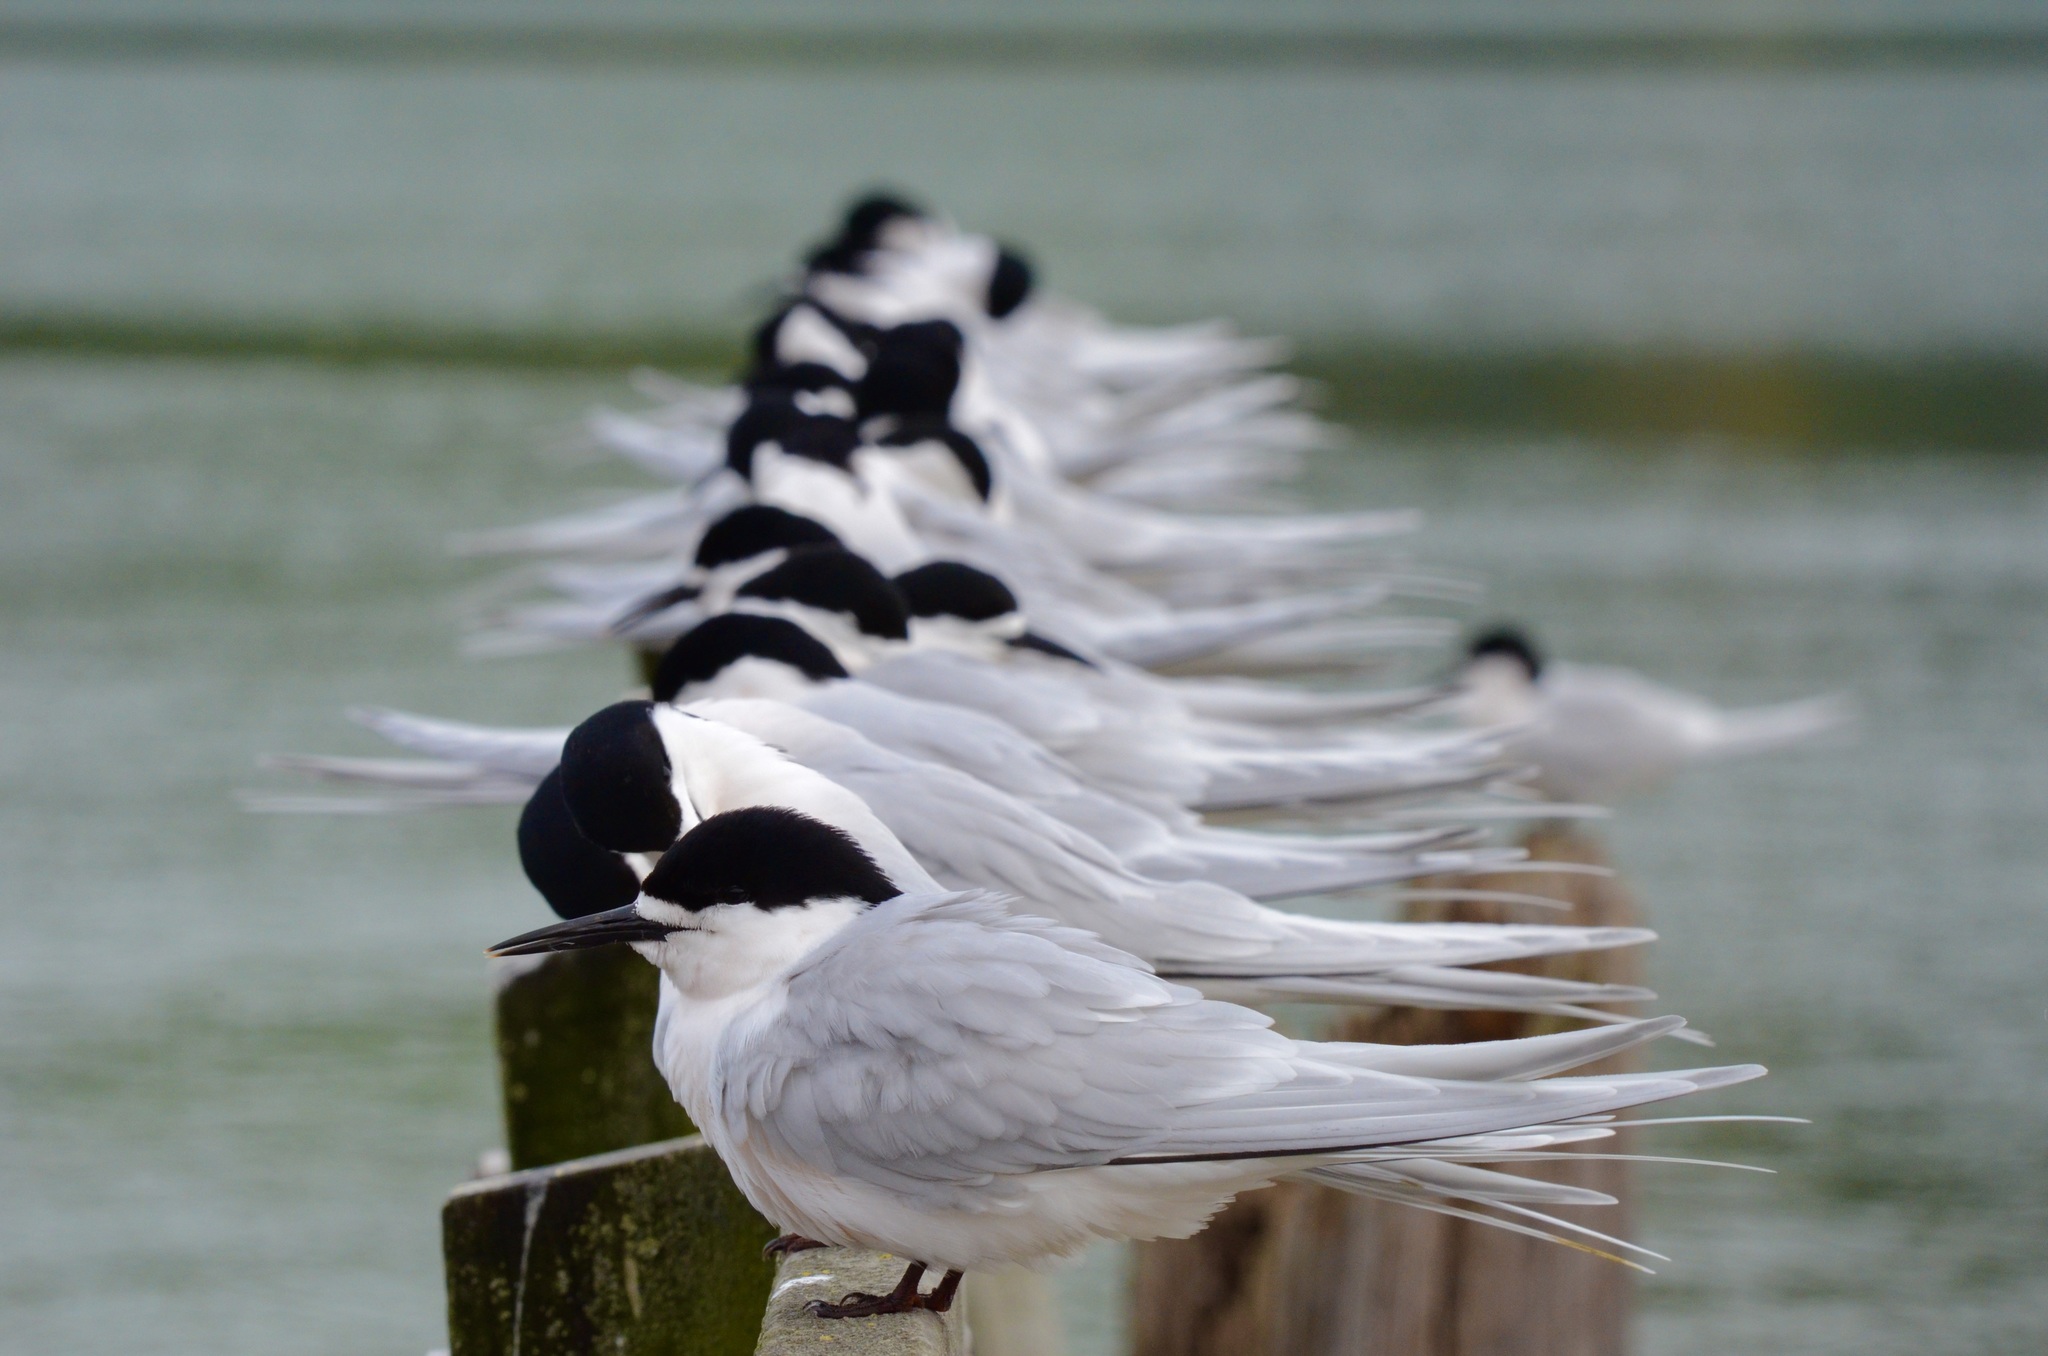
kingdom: Animalia
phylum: Chordata
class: Aves
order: Charadriiformes
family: Laridae
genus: Sterna
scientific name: Sterna striata
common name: White-fronted tern
